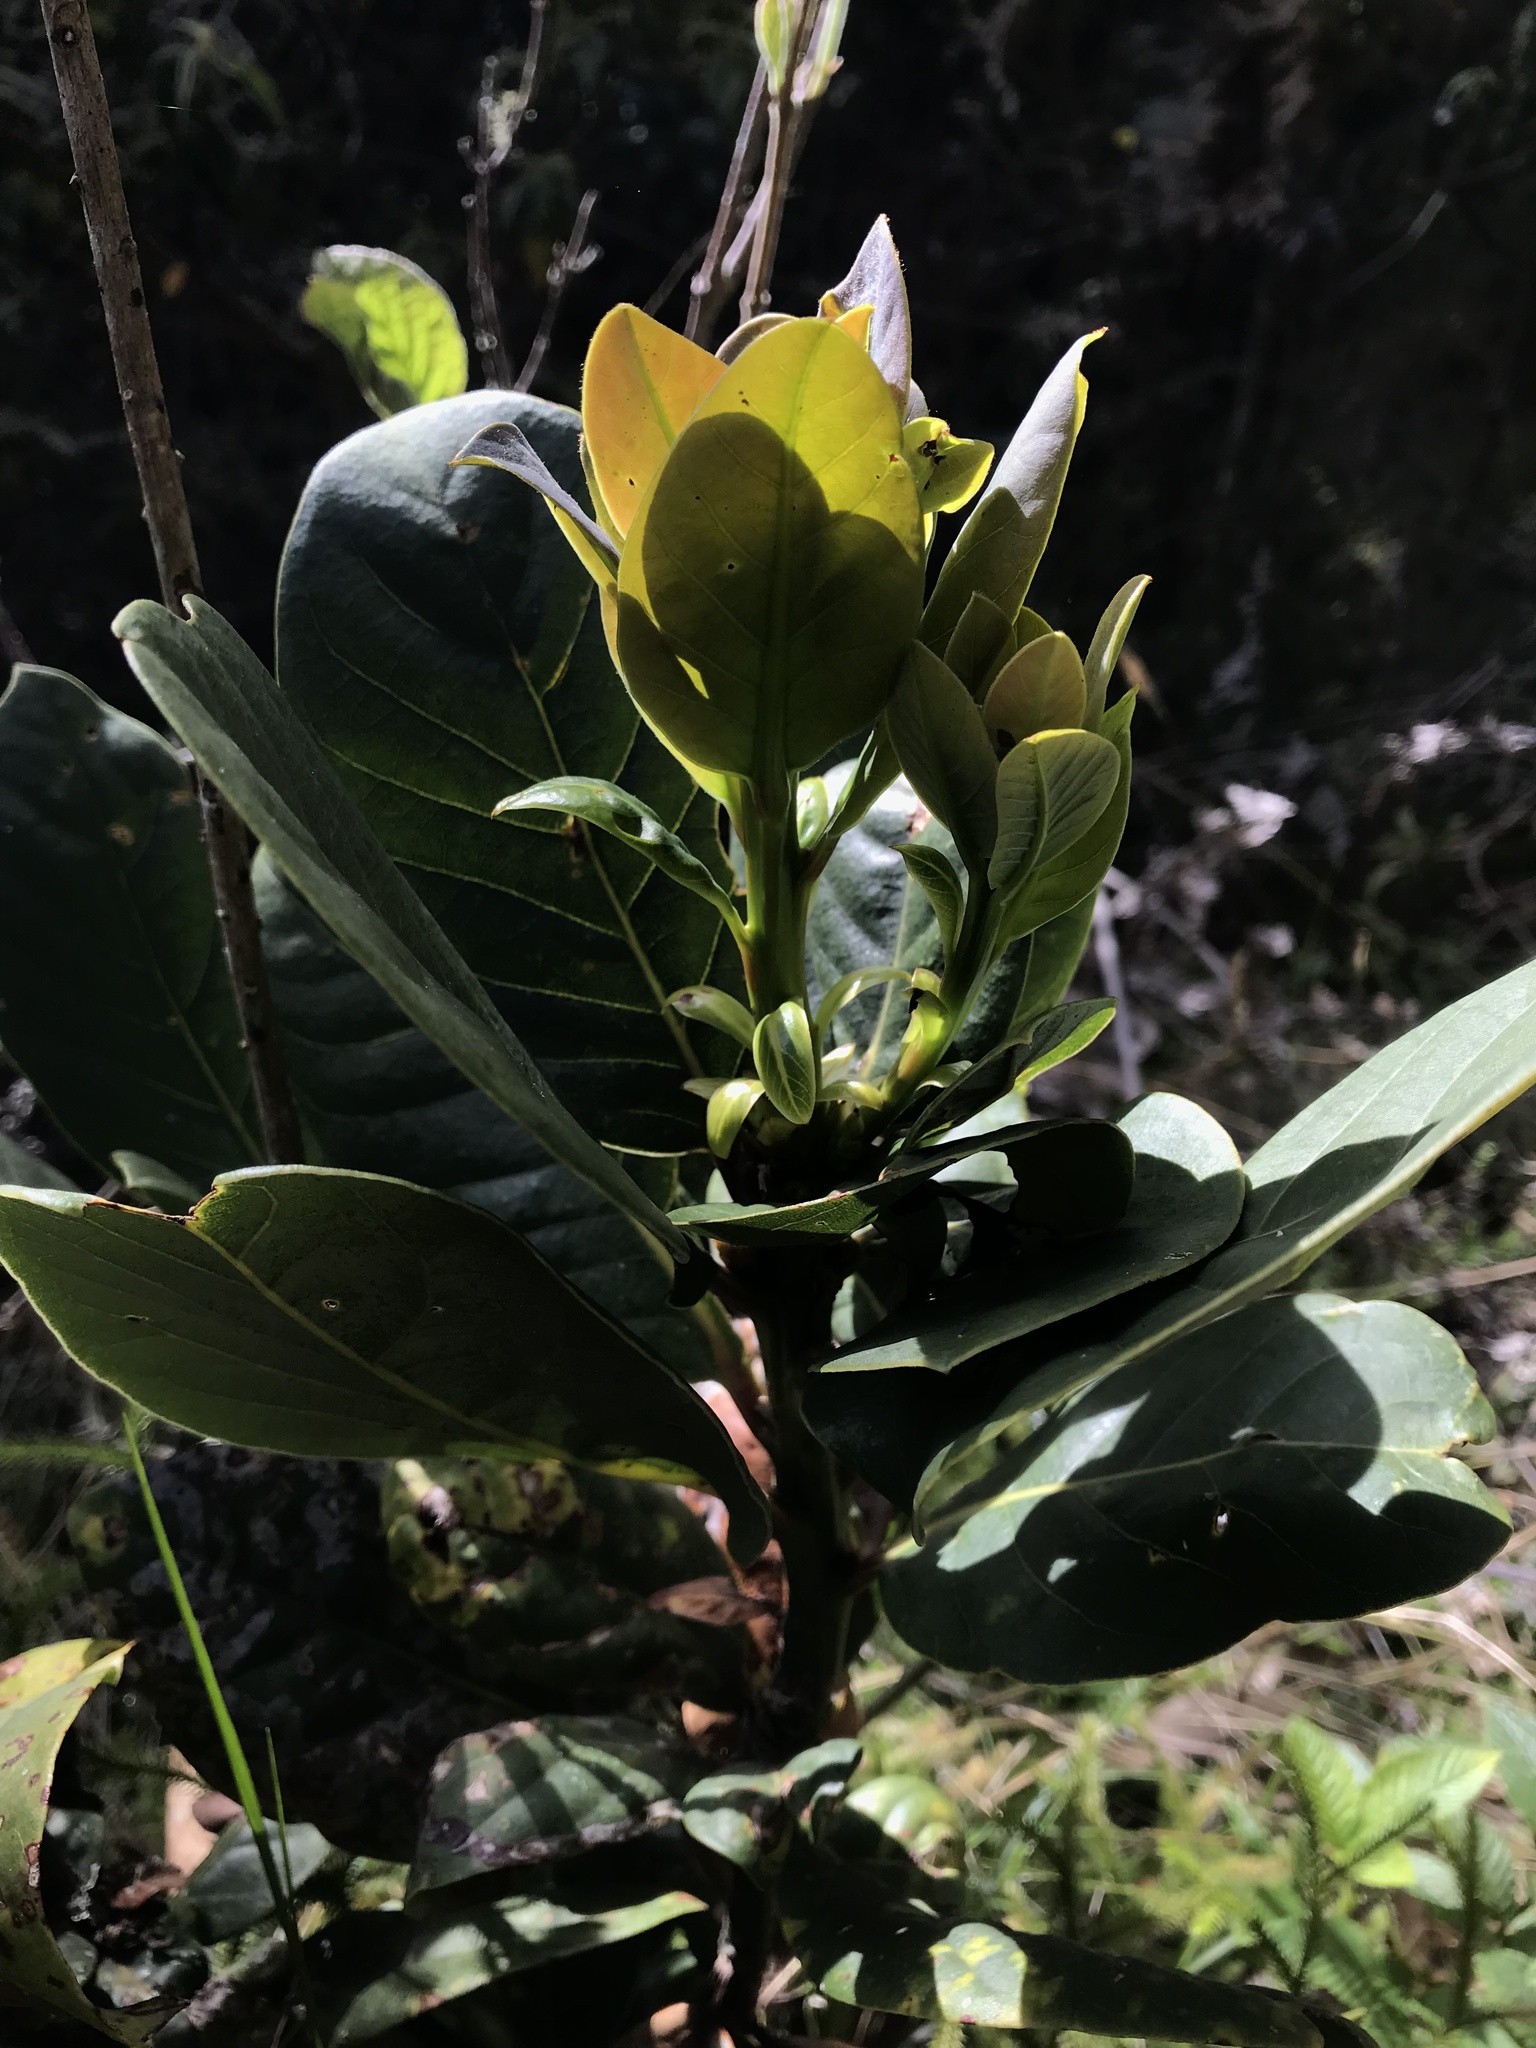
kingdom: Plantae
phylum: Tracheophyta
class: Magnoliopsida
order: Laurales
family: Lauraceae
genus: Persea
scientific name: Persea mutisii
